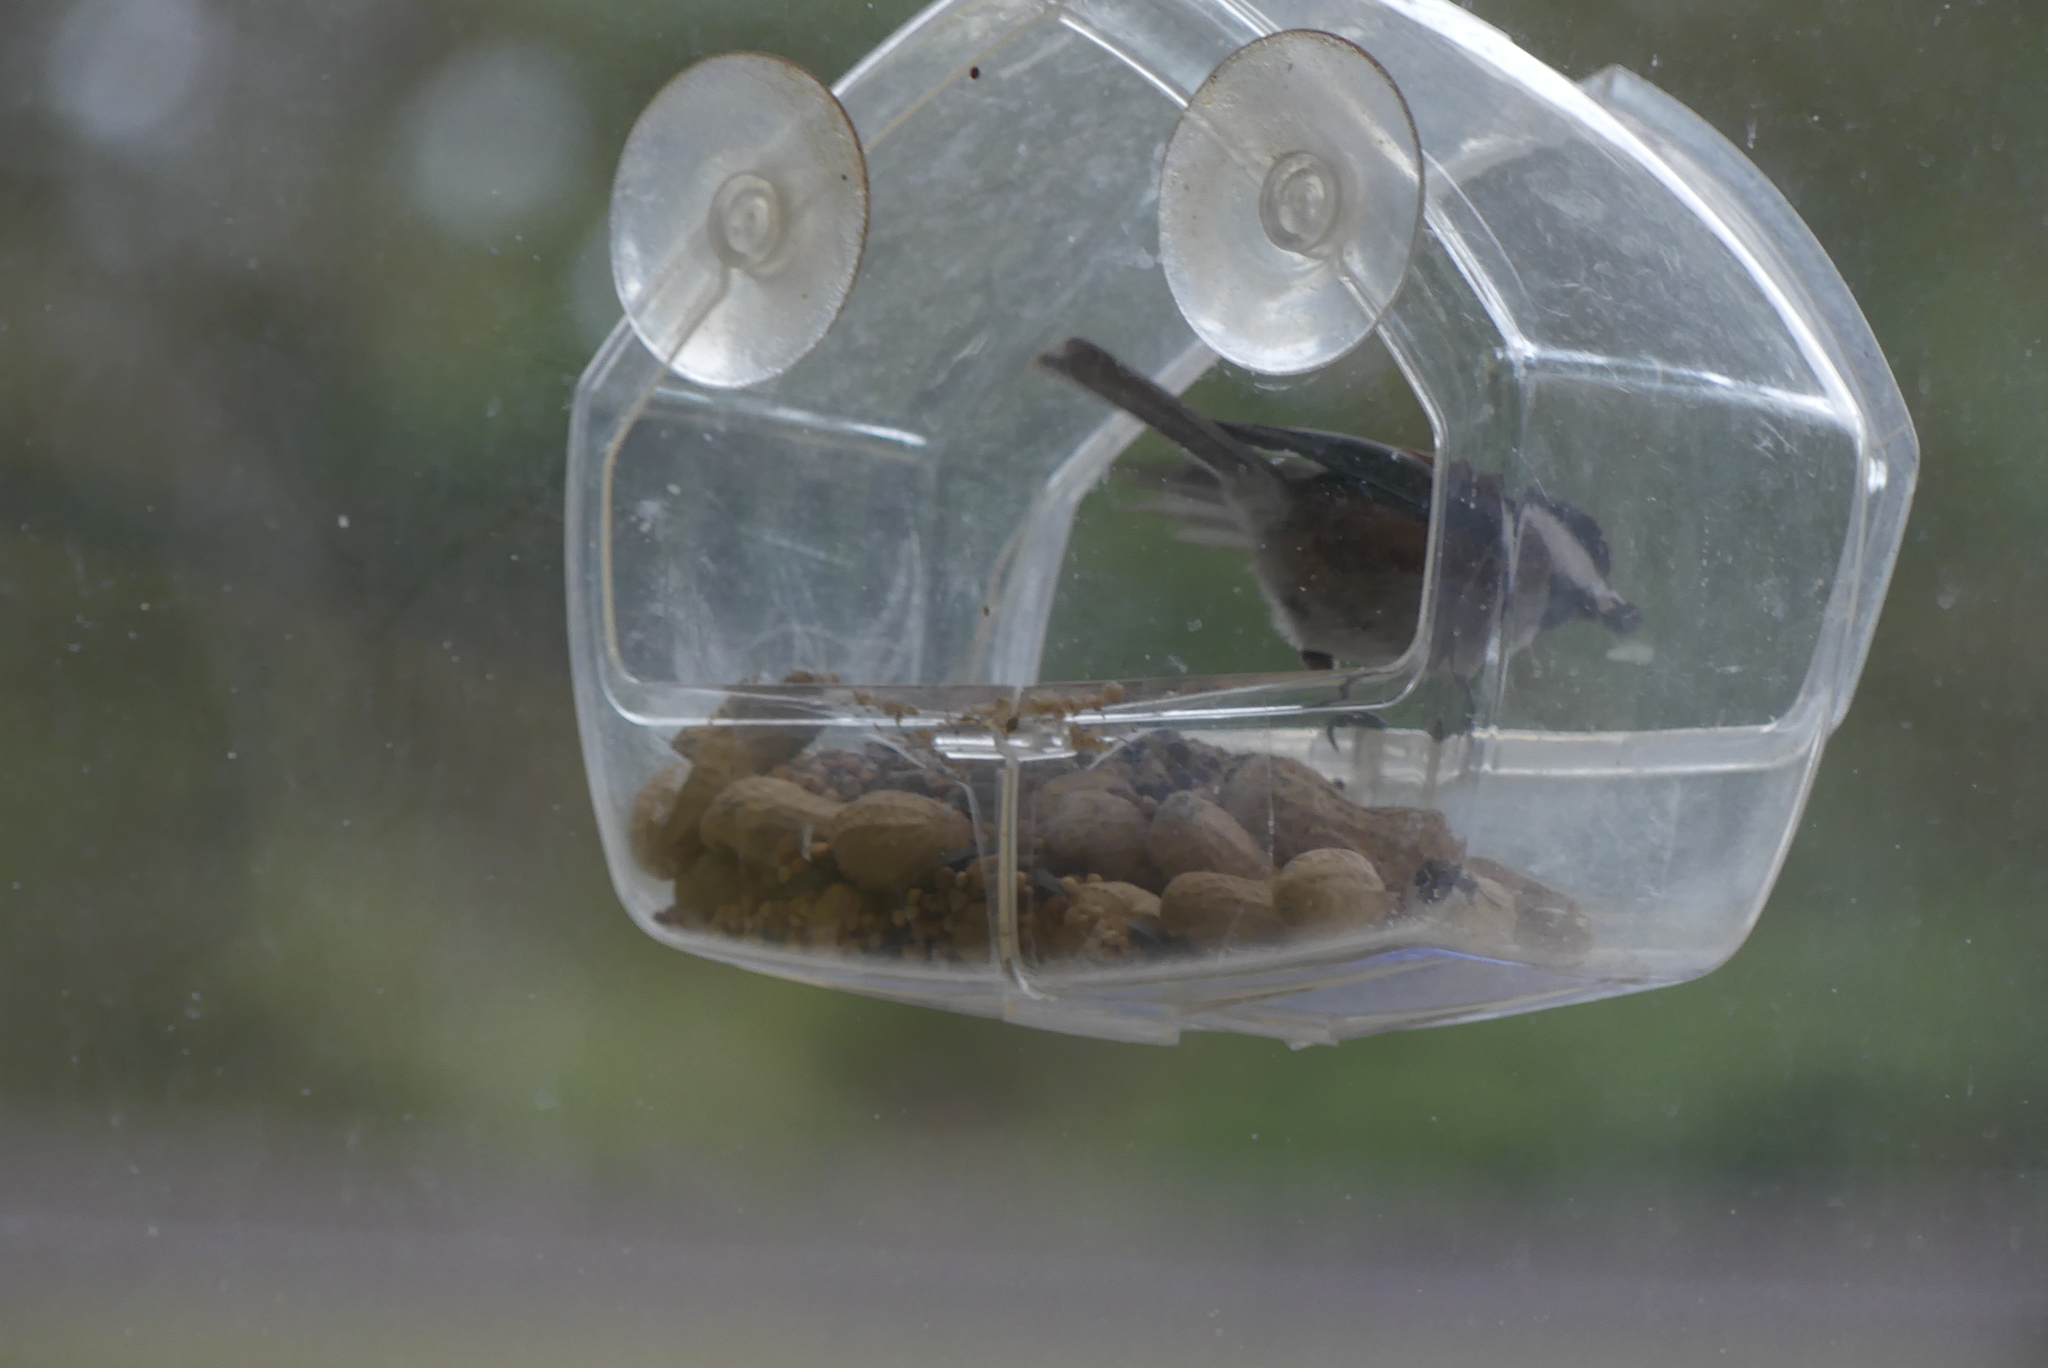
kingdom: Animalia
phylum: Chordata
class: Aves
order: Passeriformes
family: Paridae
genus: Poecile
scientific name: Poecile rufescens
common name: Chestnut-backed chickadee
